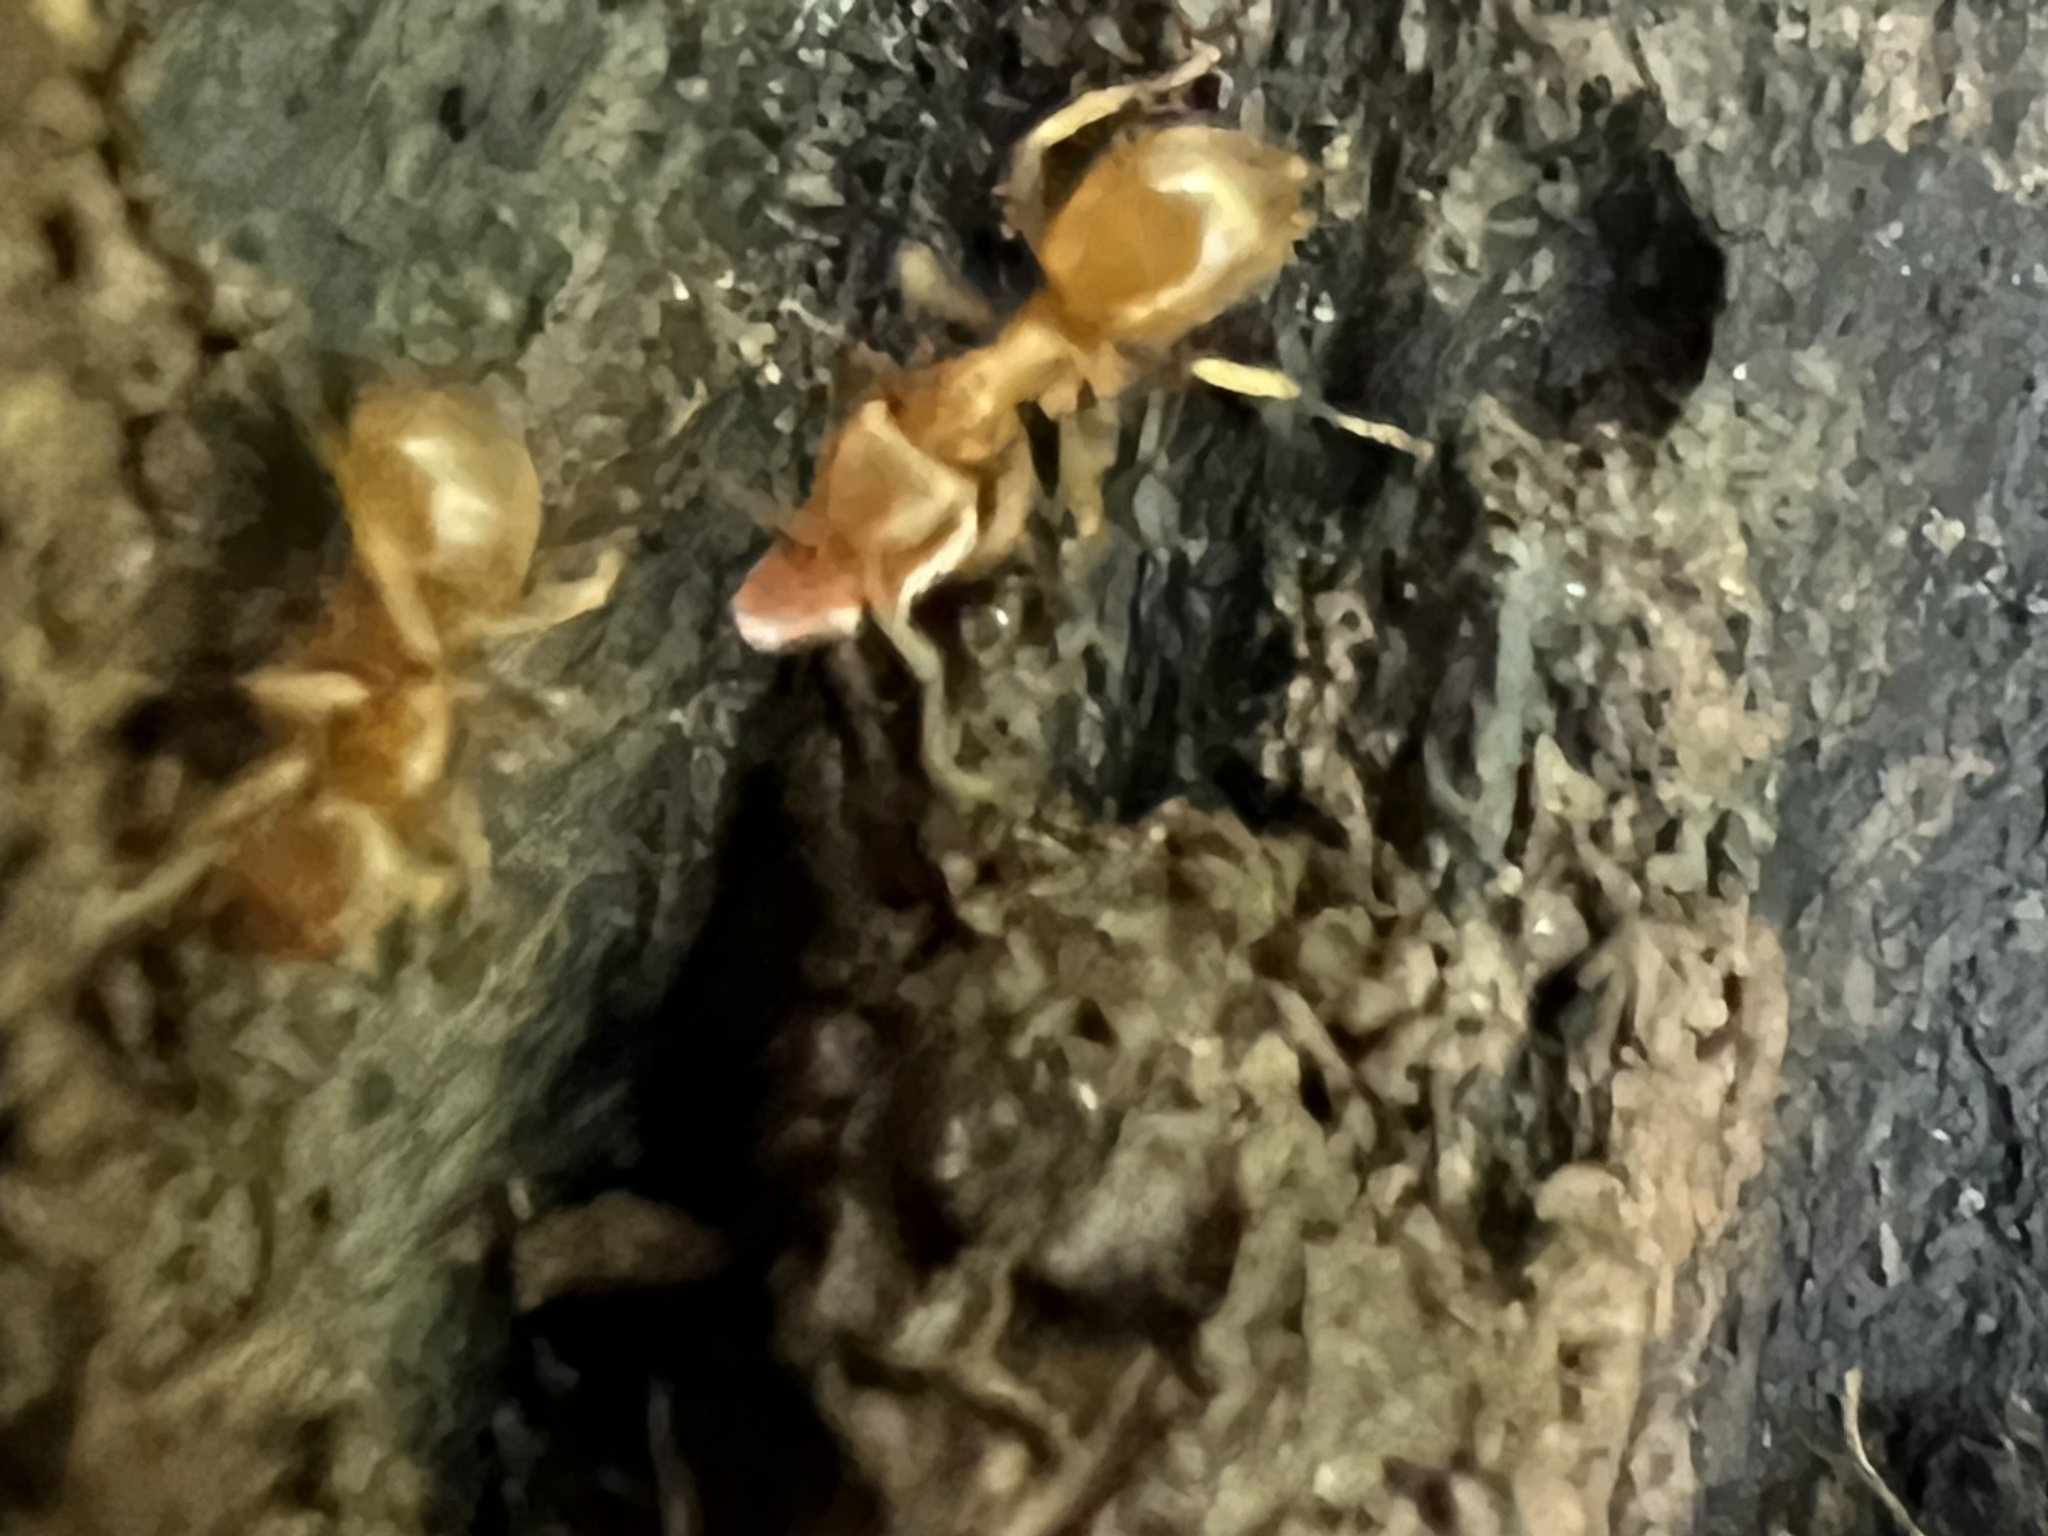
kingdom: Animalia
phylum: Arthropoda
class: Insecta
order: Hymenoptera
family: Formicidae
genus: Lasius
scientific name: Lasius aphidicola
